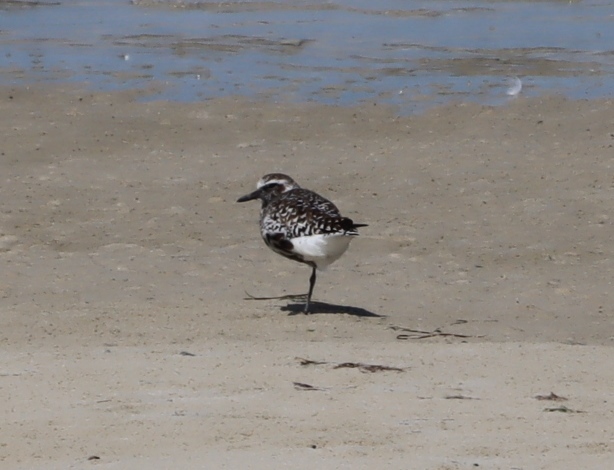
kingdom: Animalia
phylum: Chordata
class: Aves
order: Charadriiformes
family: Charadriidae
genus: Pluvialis
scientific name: Pluvialis squatarola
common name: Grey plover
